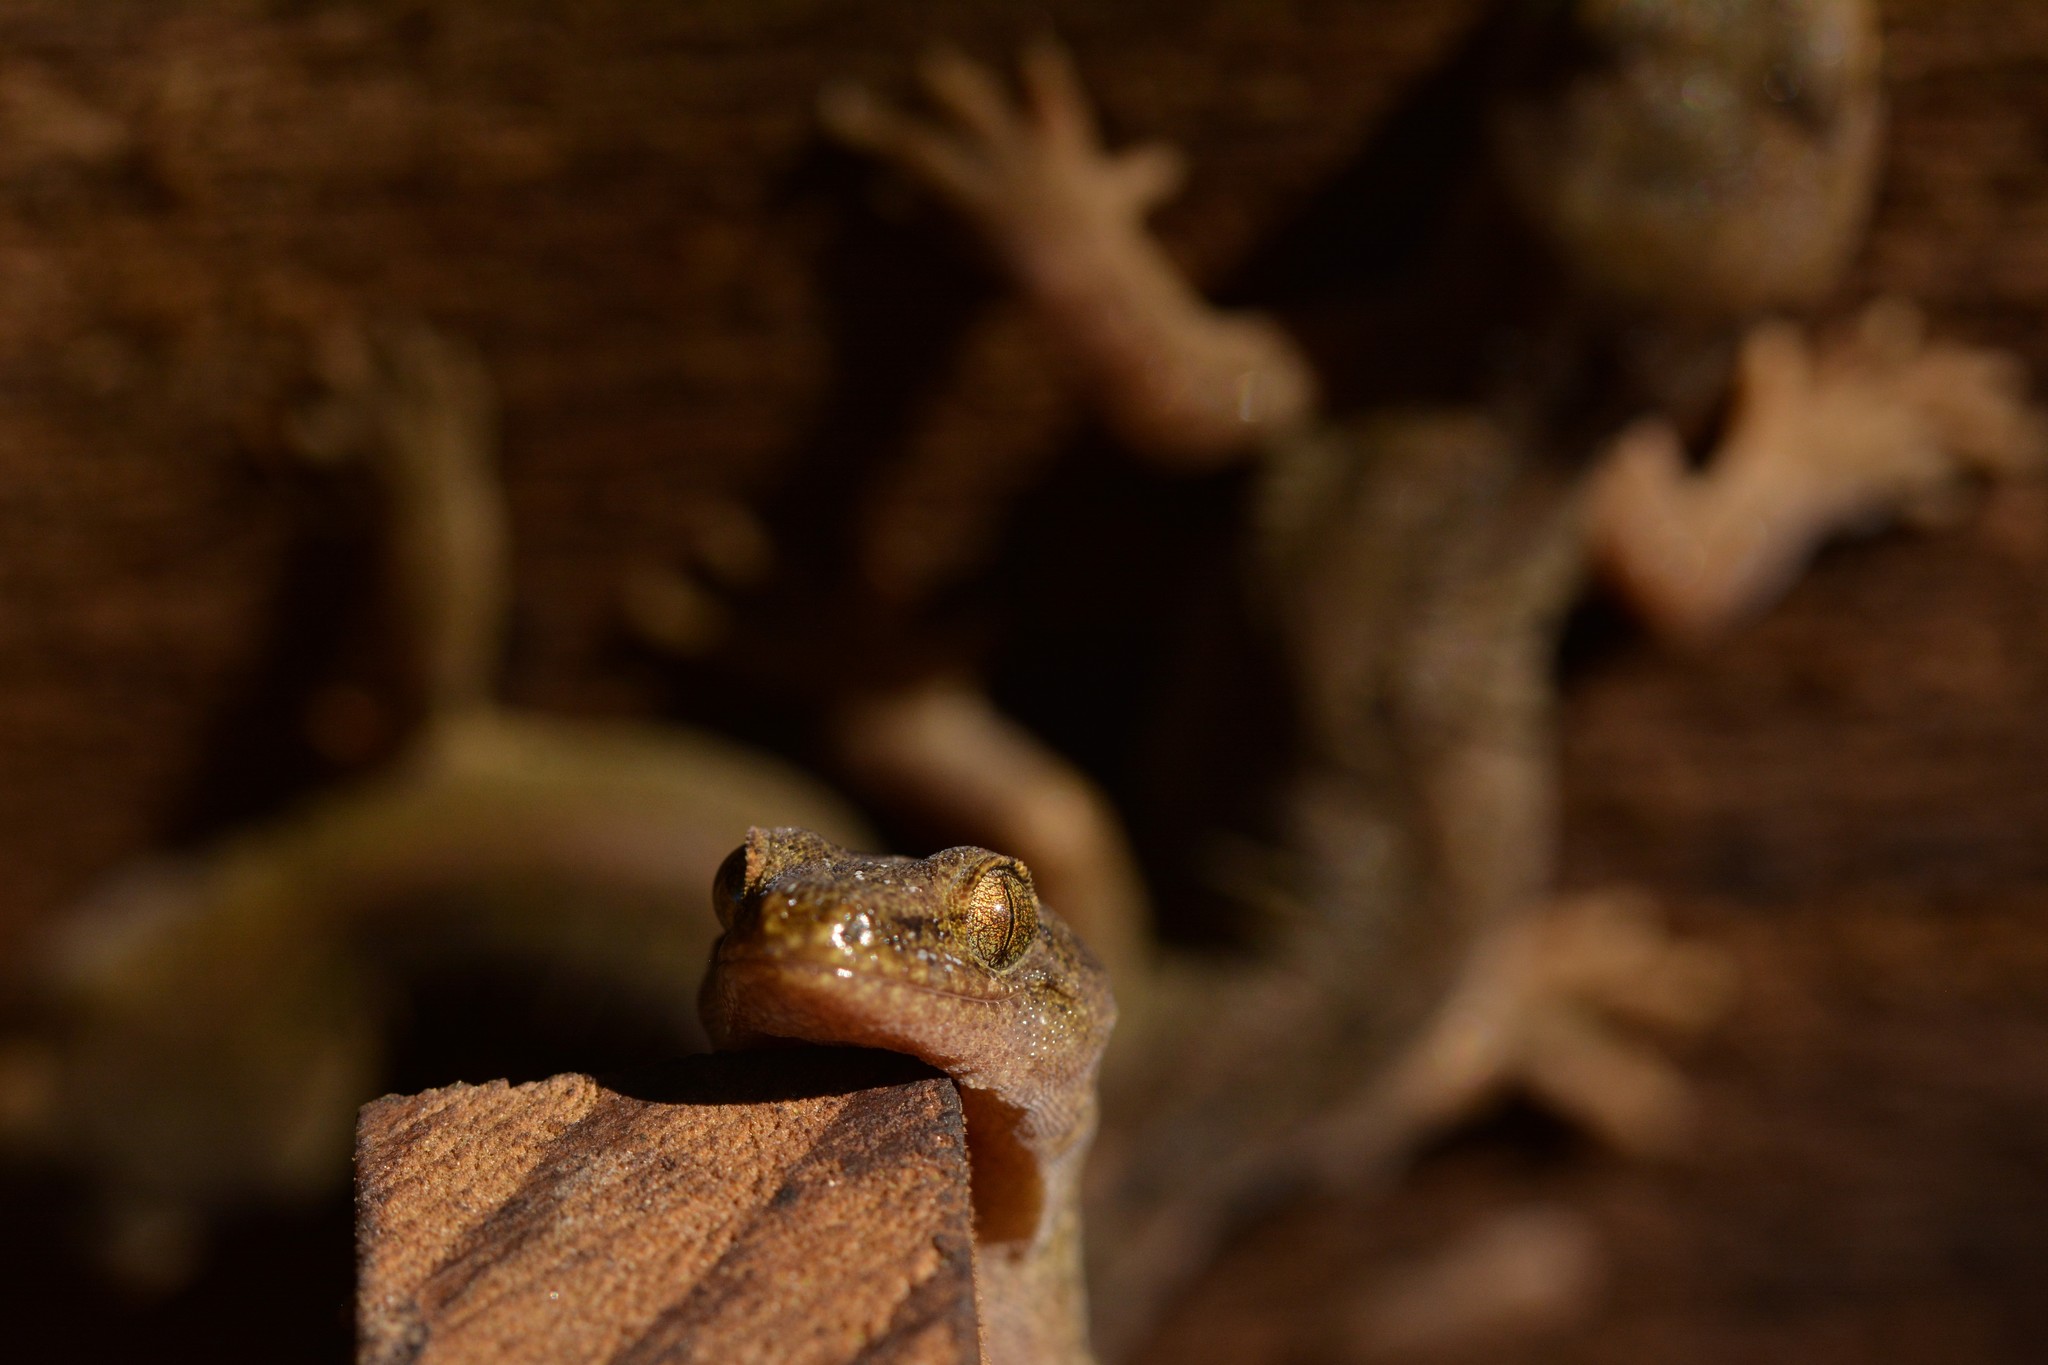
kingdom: Animalia
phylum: Chordata
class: Squamata
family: Diplodactylidae
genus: Woodworthia
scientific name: Woodworthia maculata
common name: Raukawa gecko
